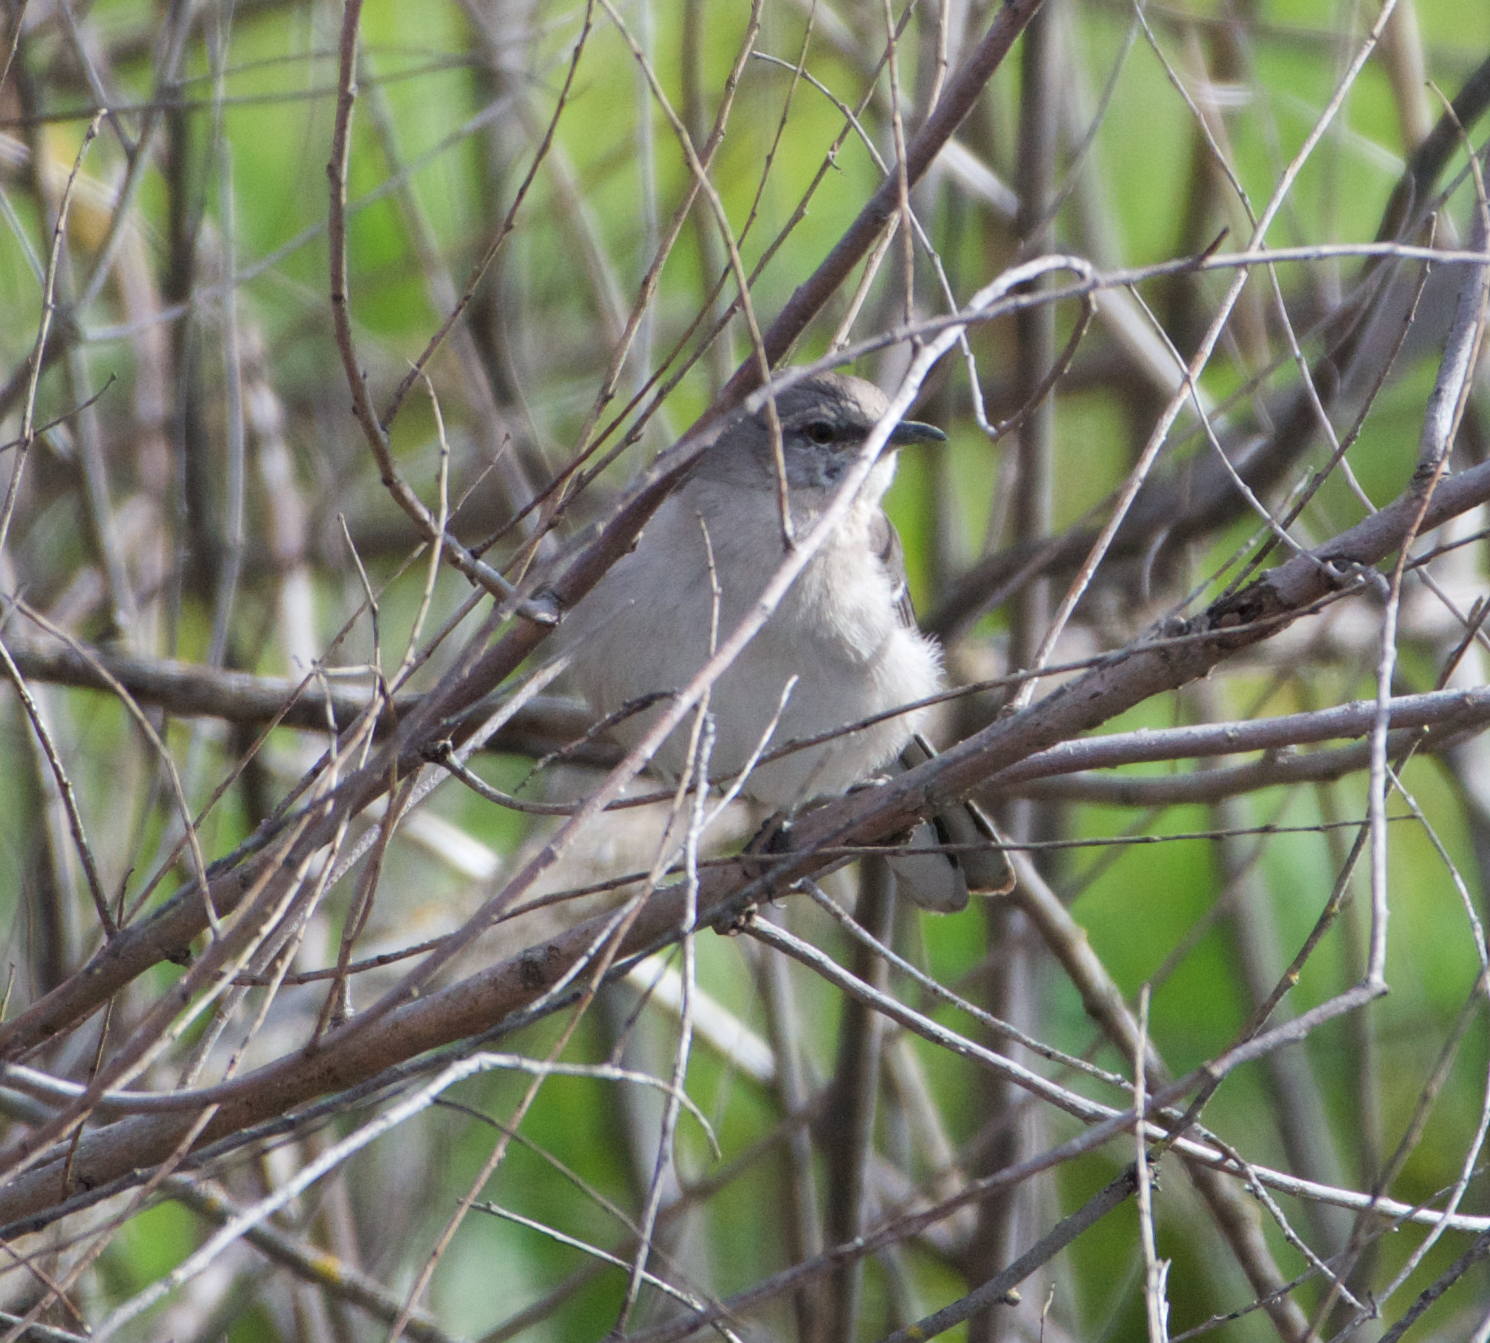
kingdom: Animalia
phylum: Chordata
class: Aves
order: Passeriformes
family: Mimidae
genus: Mimus
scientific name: Mimus polyglottos
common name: Northern mockingbird
